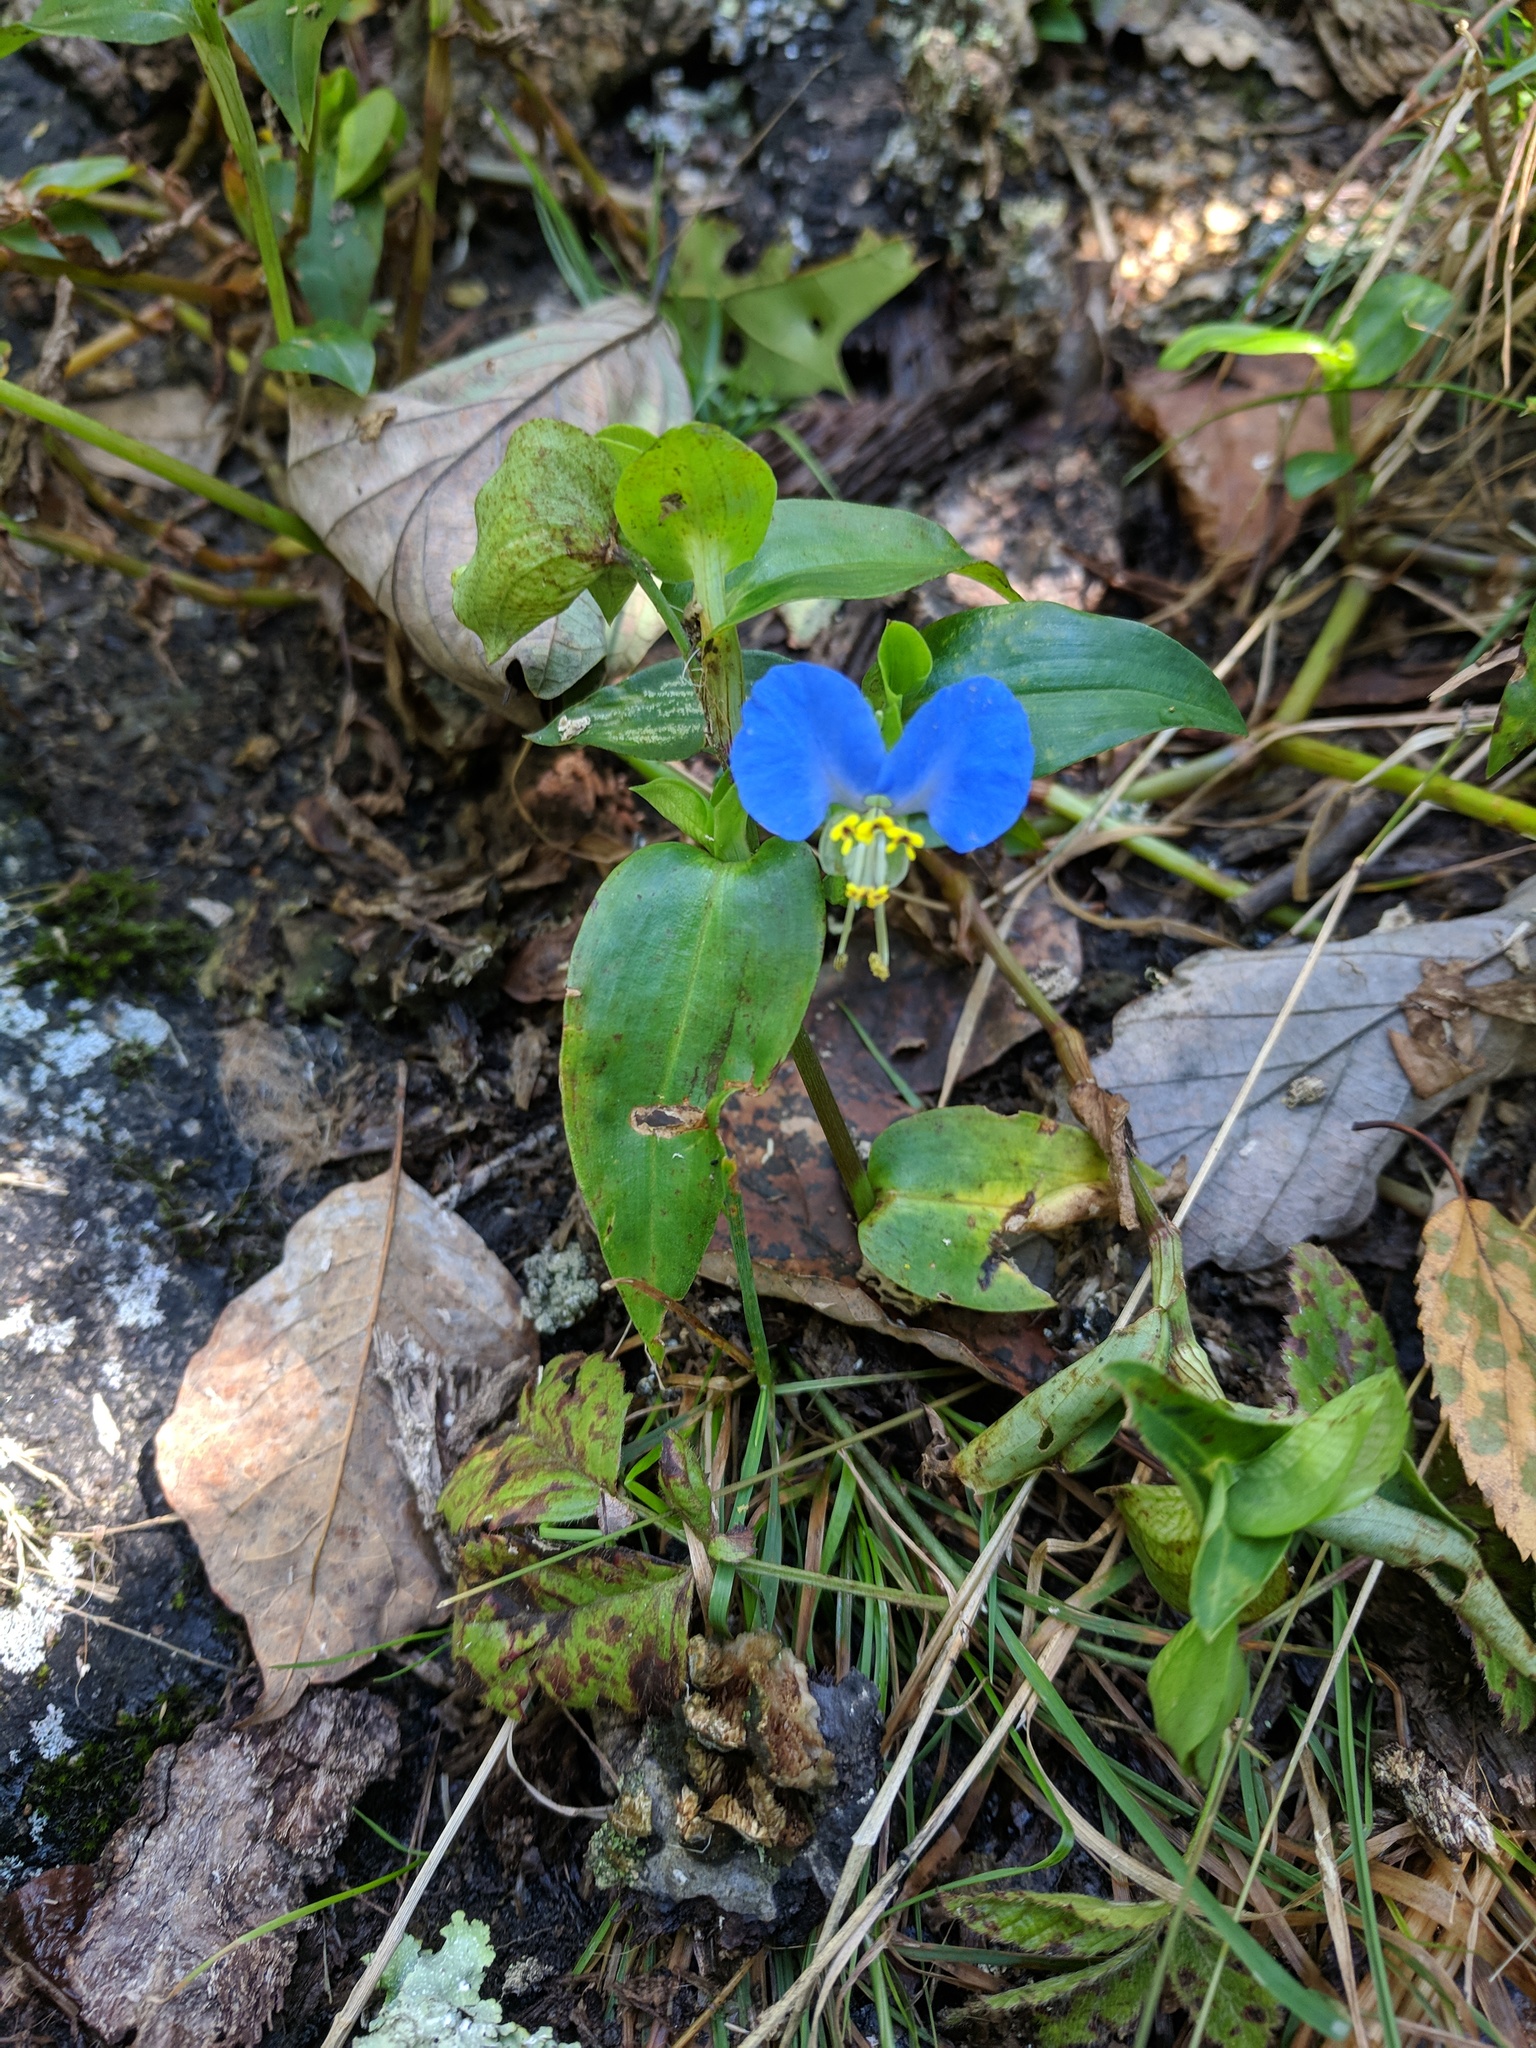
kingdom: Plantae
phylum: Tracheophyta
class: Liliopsida
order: Commelinales
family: Commelinaceae
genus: Commelina
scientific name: Commelina communis
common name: Asiatic dayflower
